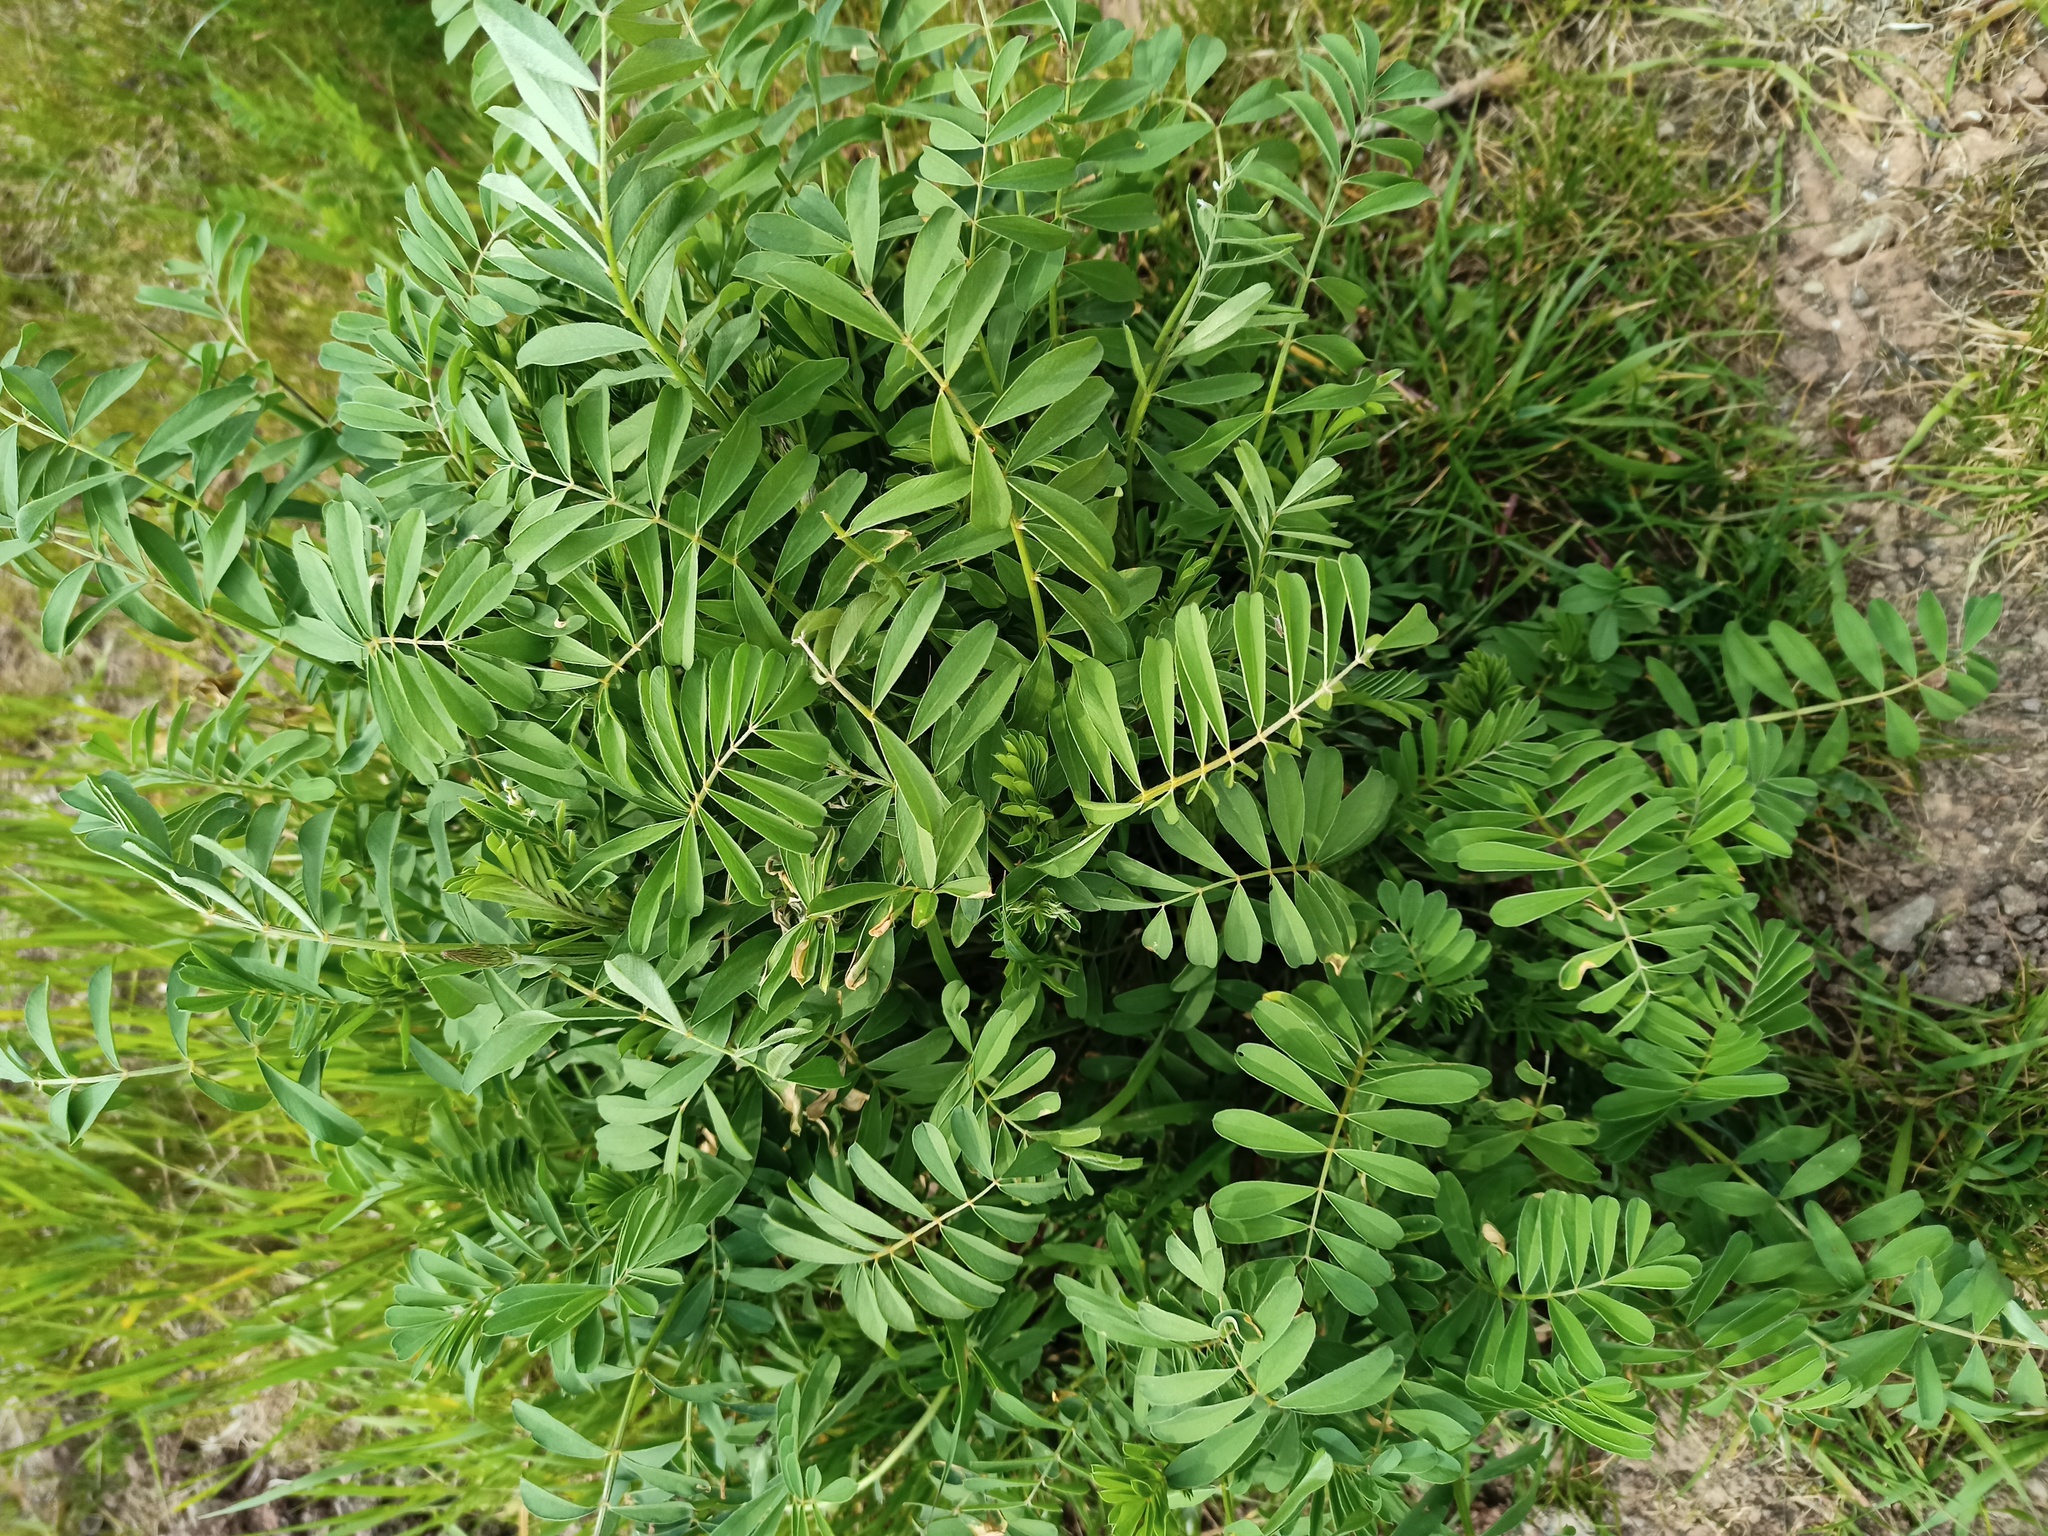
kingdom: Plantae
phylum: Tracheophyta
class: Magnoliopsida
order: Fabales
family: Fabaceae
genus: Galega
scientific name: Galega officinalis
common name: Goat's-rue
